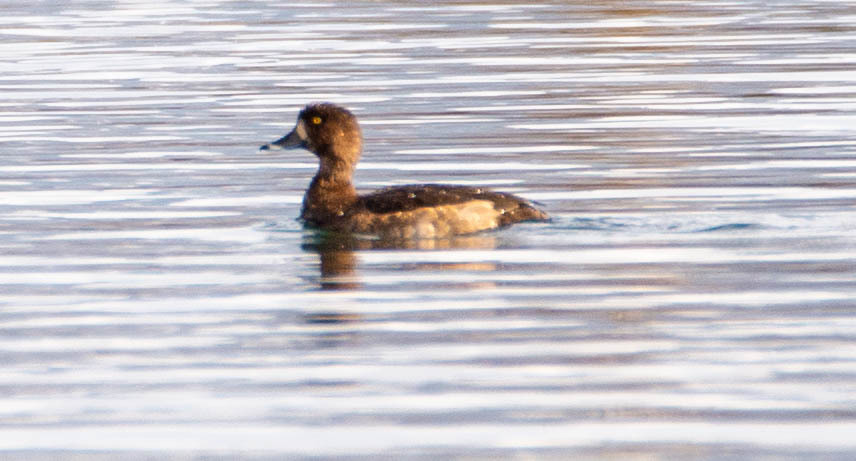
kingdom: Animalia
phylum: Chordata
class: Aves
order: Anseriformes
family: Anatidae
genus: Aythya
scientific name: Aythya fuligula
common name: Tufted duck
